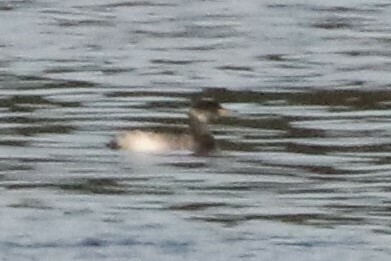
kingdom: Animalia
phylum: Chordata
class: Aves
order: Podicipediformes
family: Podicipedidae
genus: Podiceps
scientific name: Podiceps grisegena
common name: Red-necked grebe
